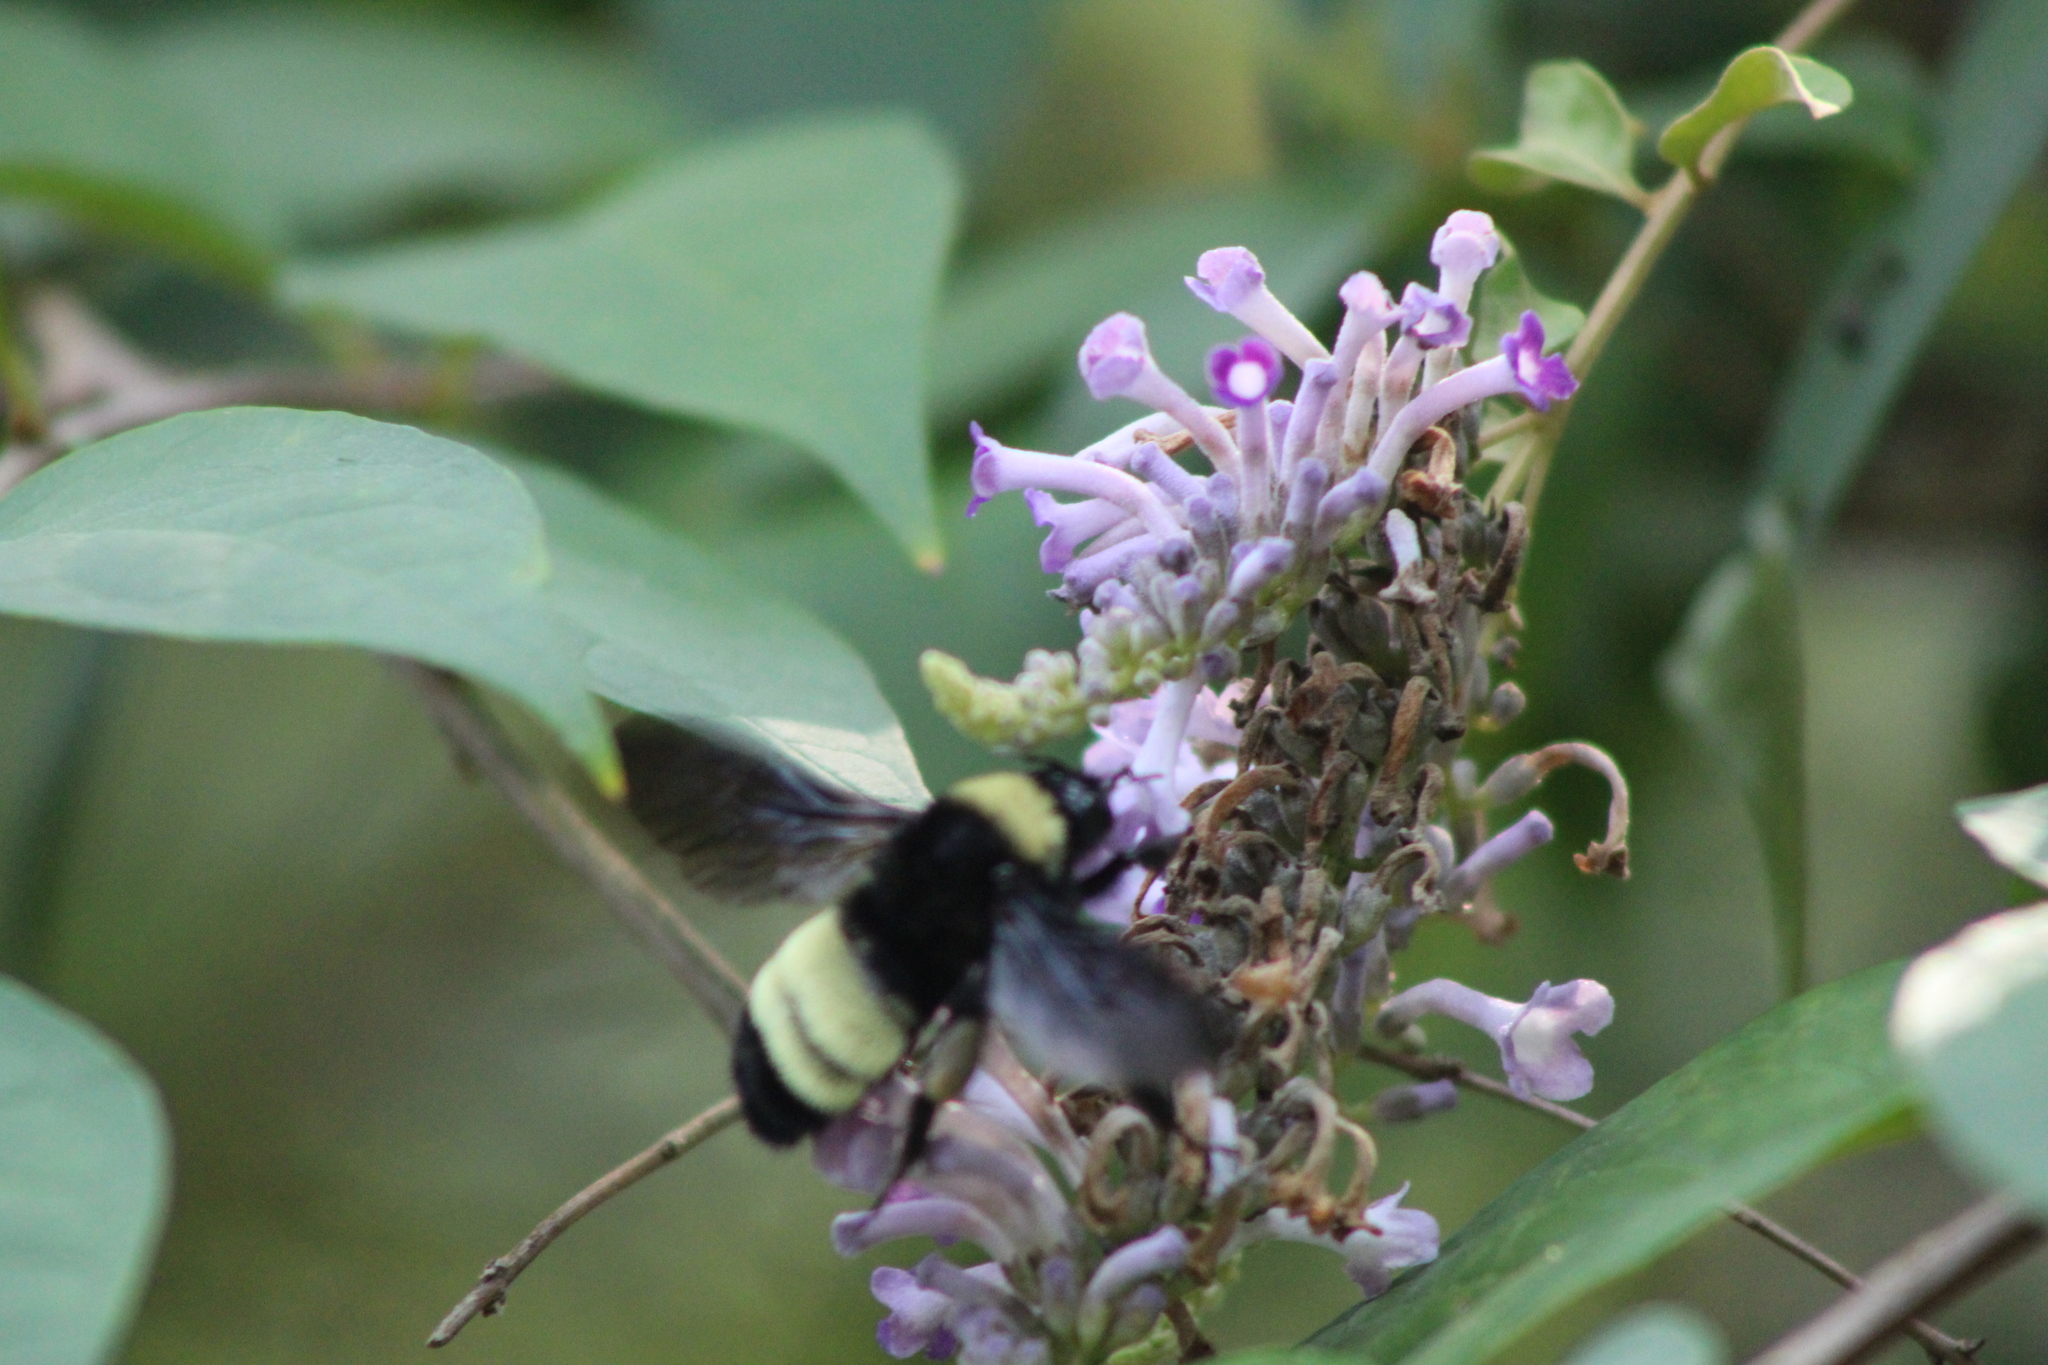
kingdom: Animalia
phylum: Arthropoda
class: Insecta
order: Hymenoptera
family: Apidae
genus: Bombus
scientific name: Bombus pensylvanicus
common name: Bumble bee
